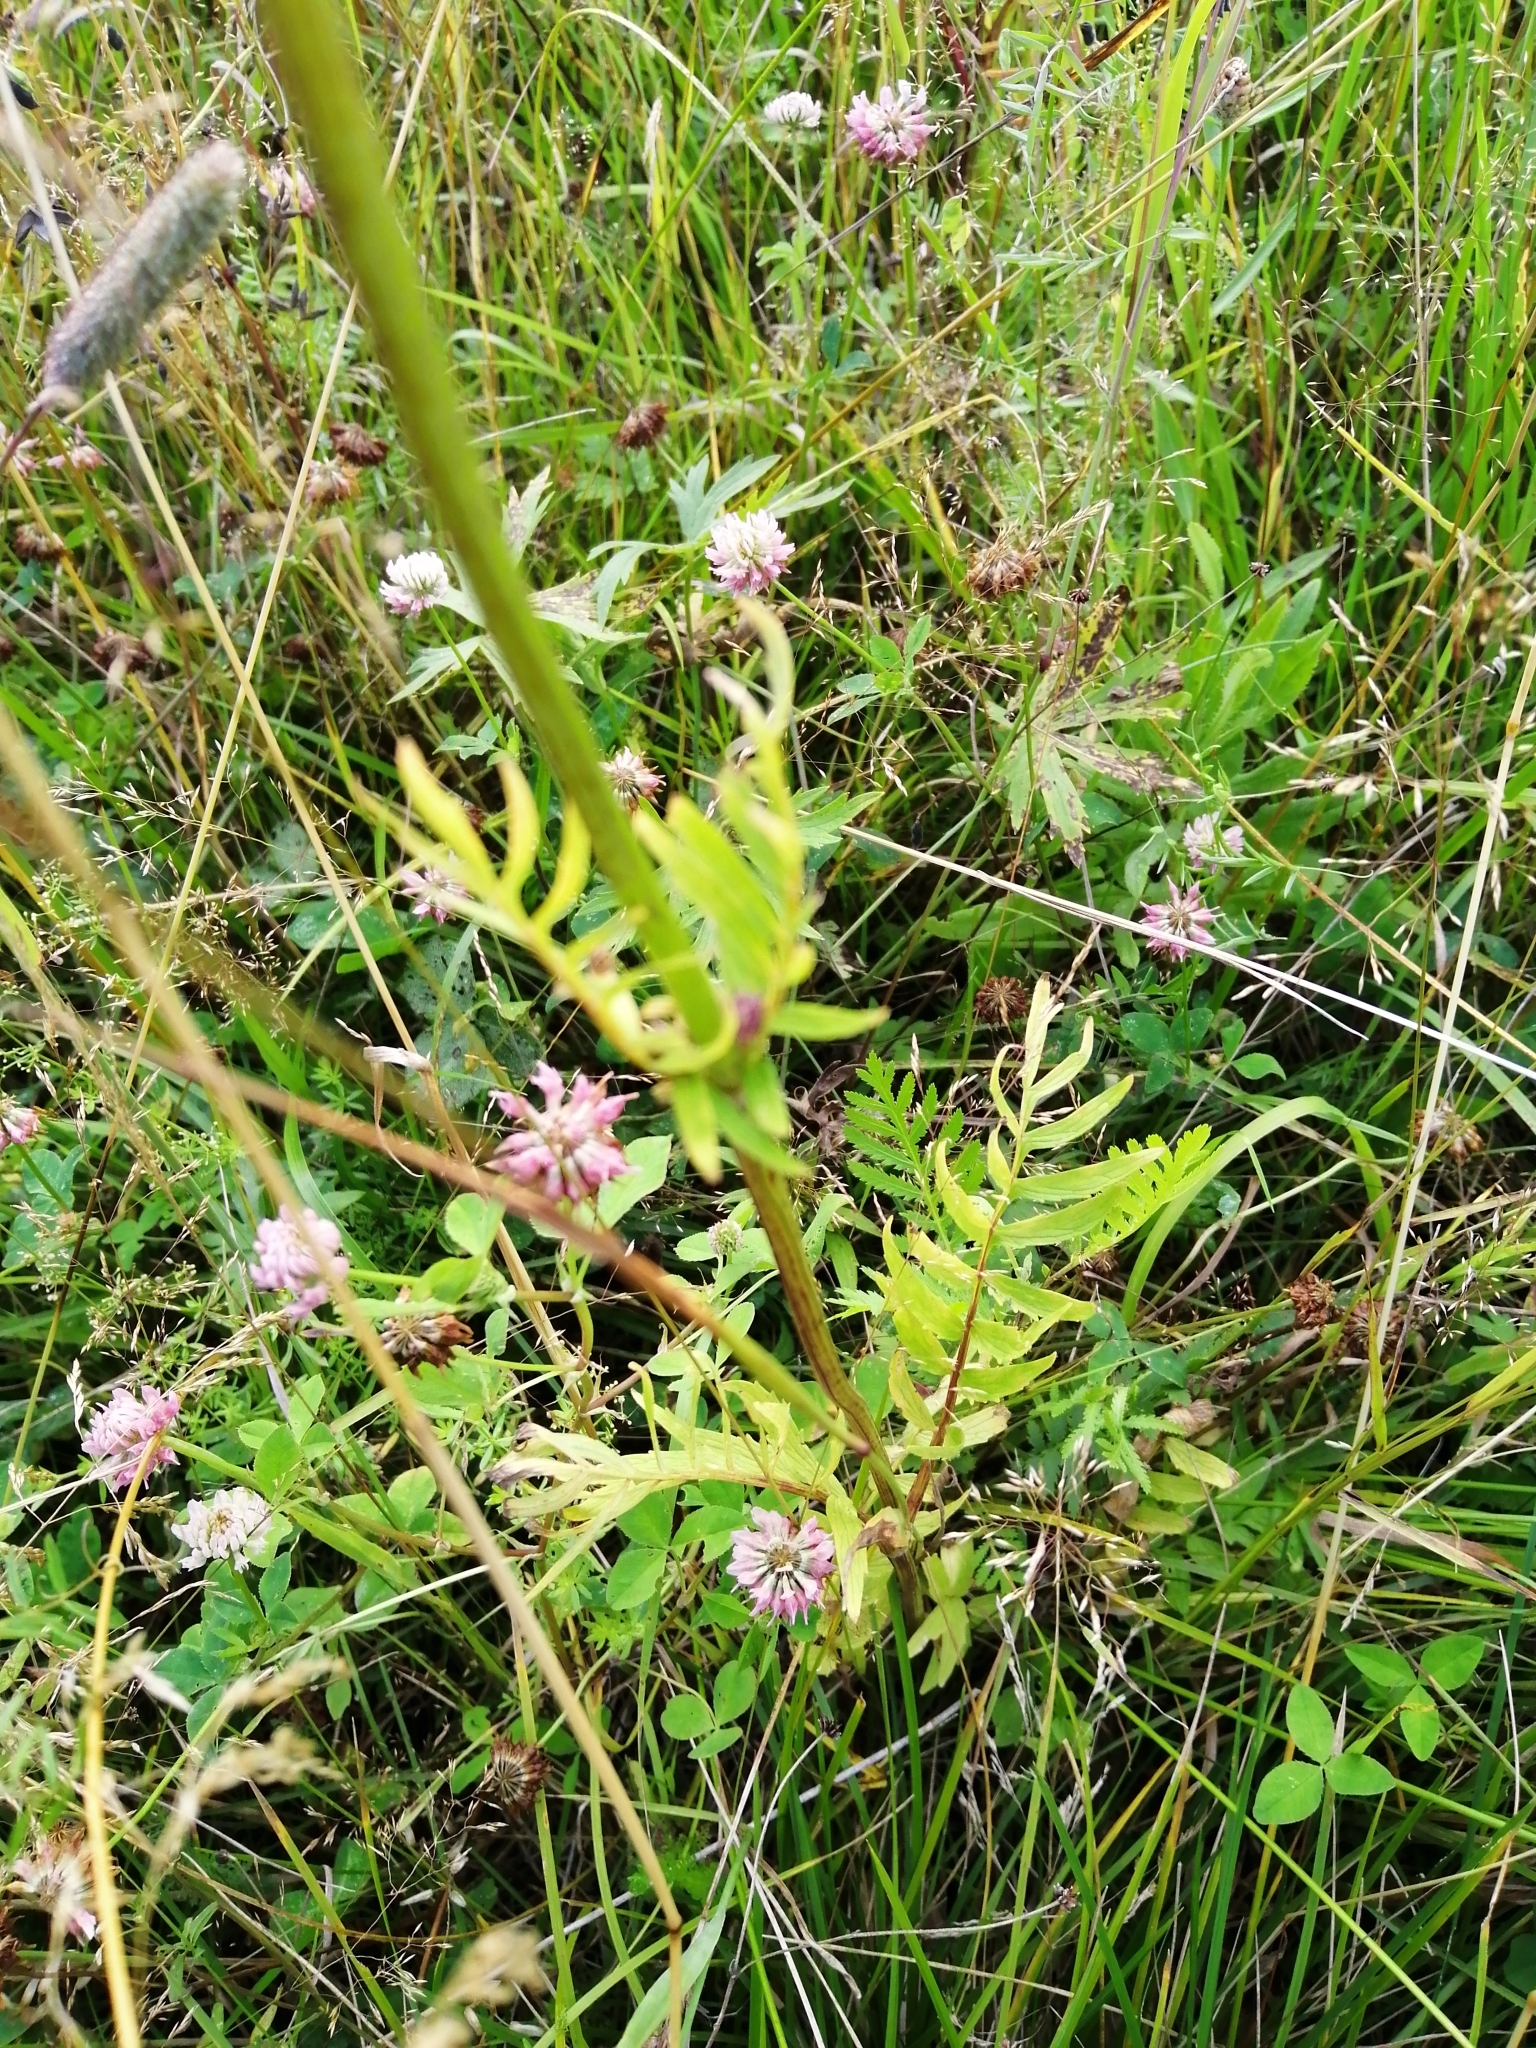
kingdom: Plantae
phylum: Tracheophyta
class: Magnoliopsida
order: Dipsacales
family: Caprifoliaceae
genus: Valeriana
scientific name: Valeriana officinalis
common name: Common valerian
